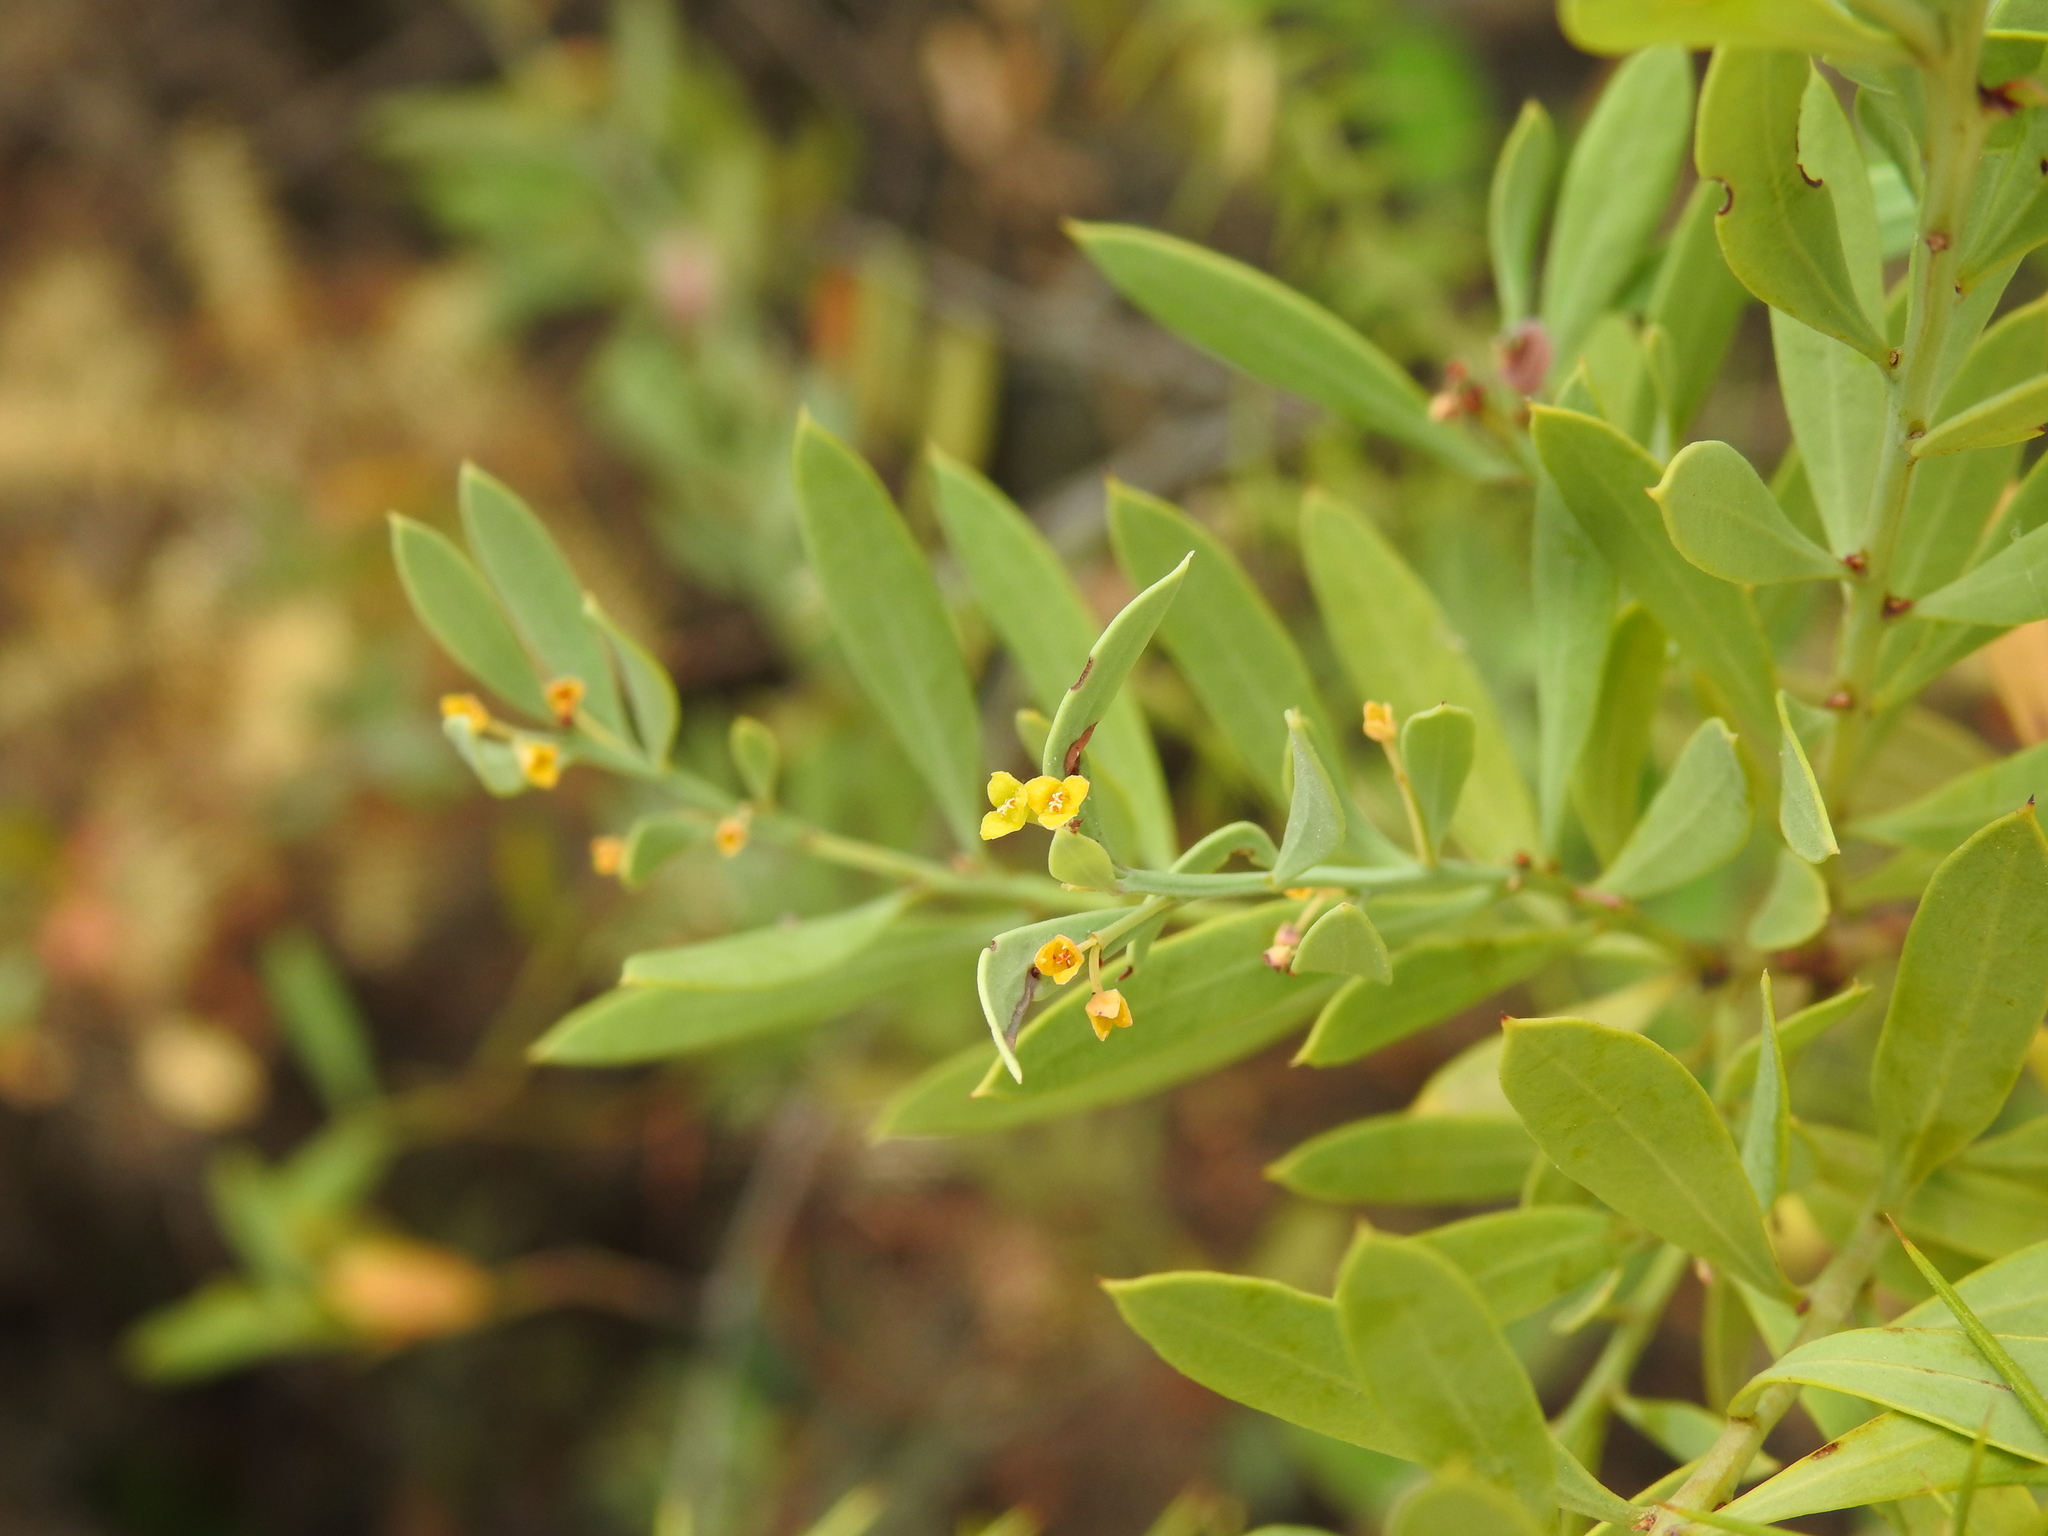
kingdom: Plantae
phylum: Tracheophyta
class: Magnoliopsida
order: Santalales
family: Santalaceae
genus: Osyris
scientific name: Osyris lanceolata
